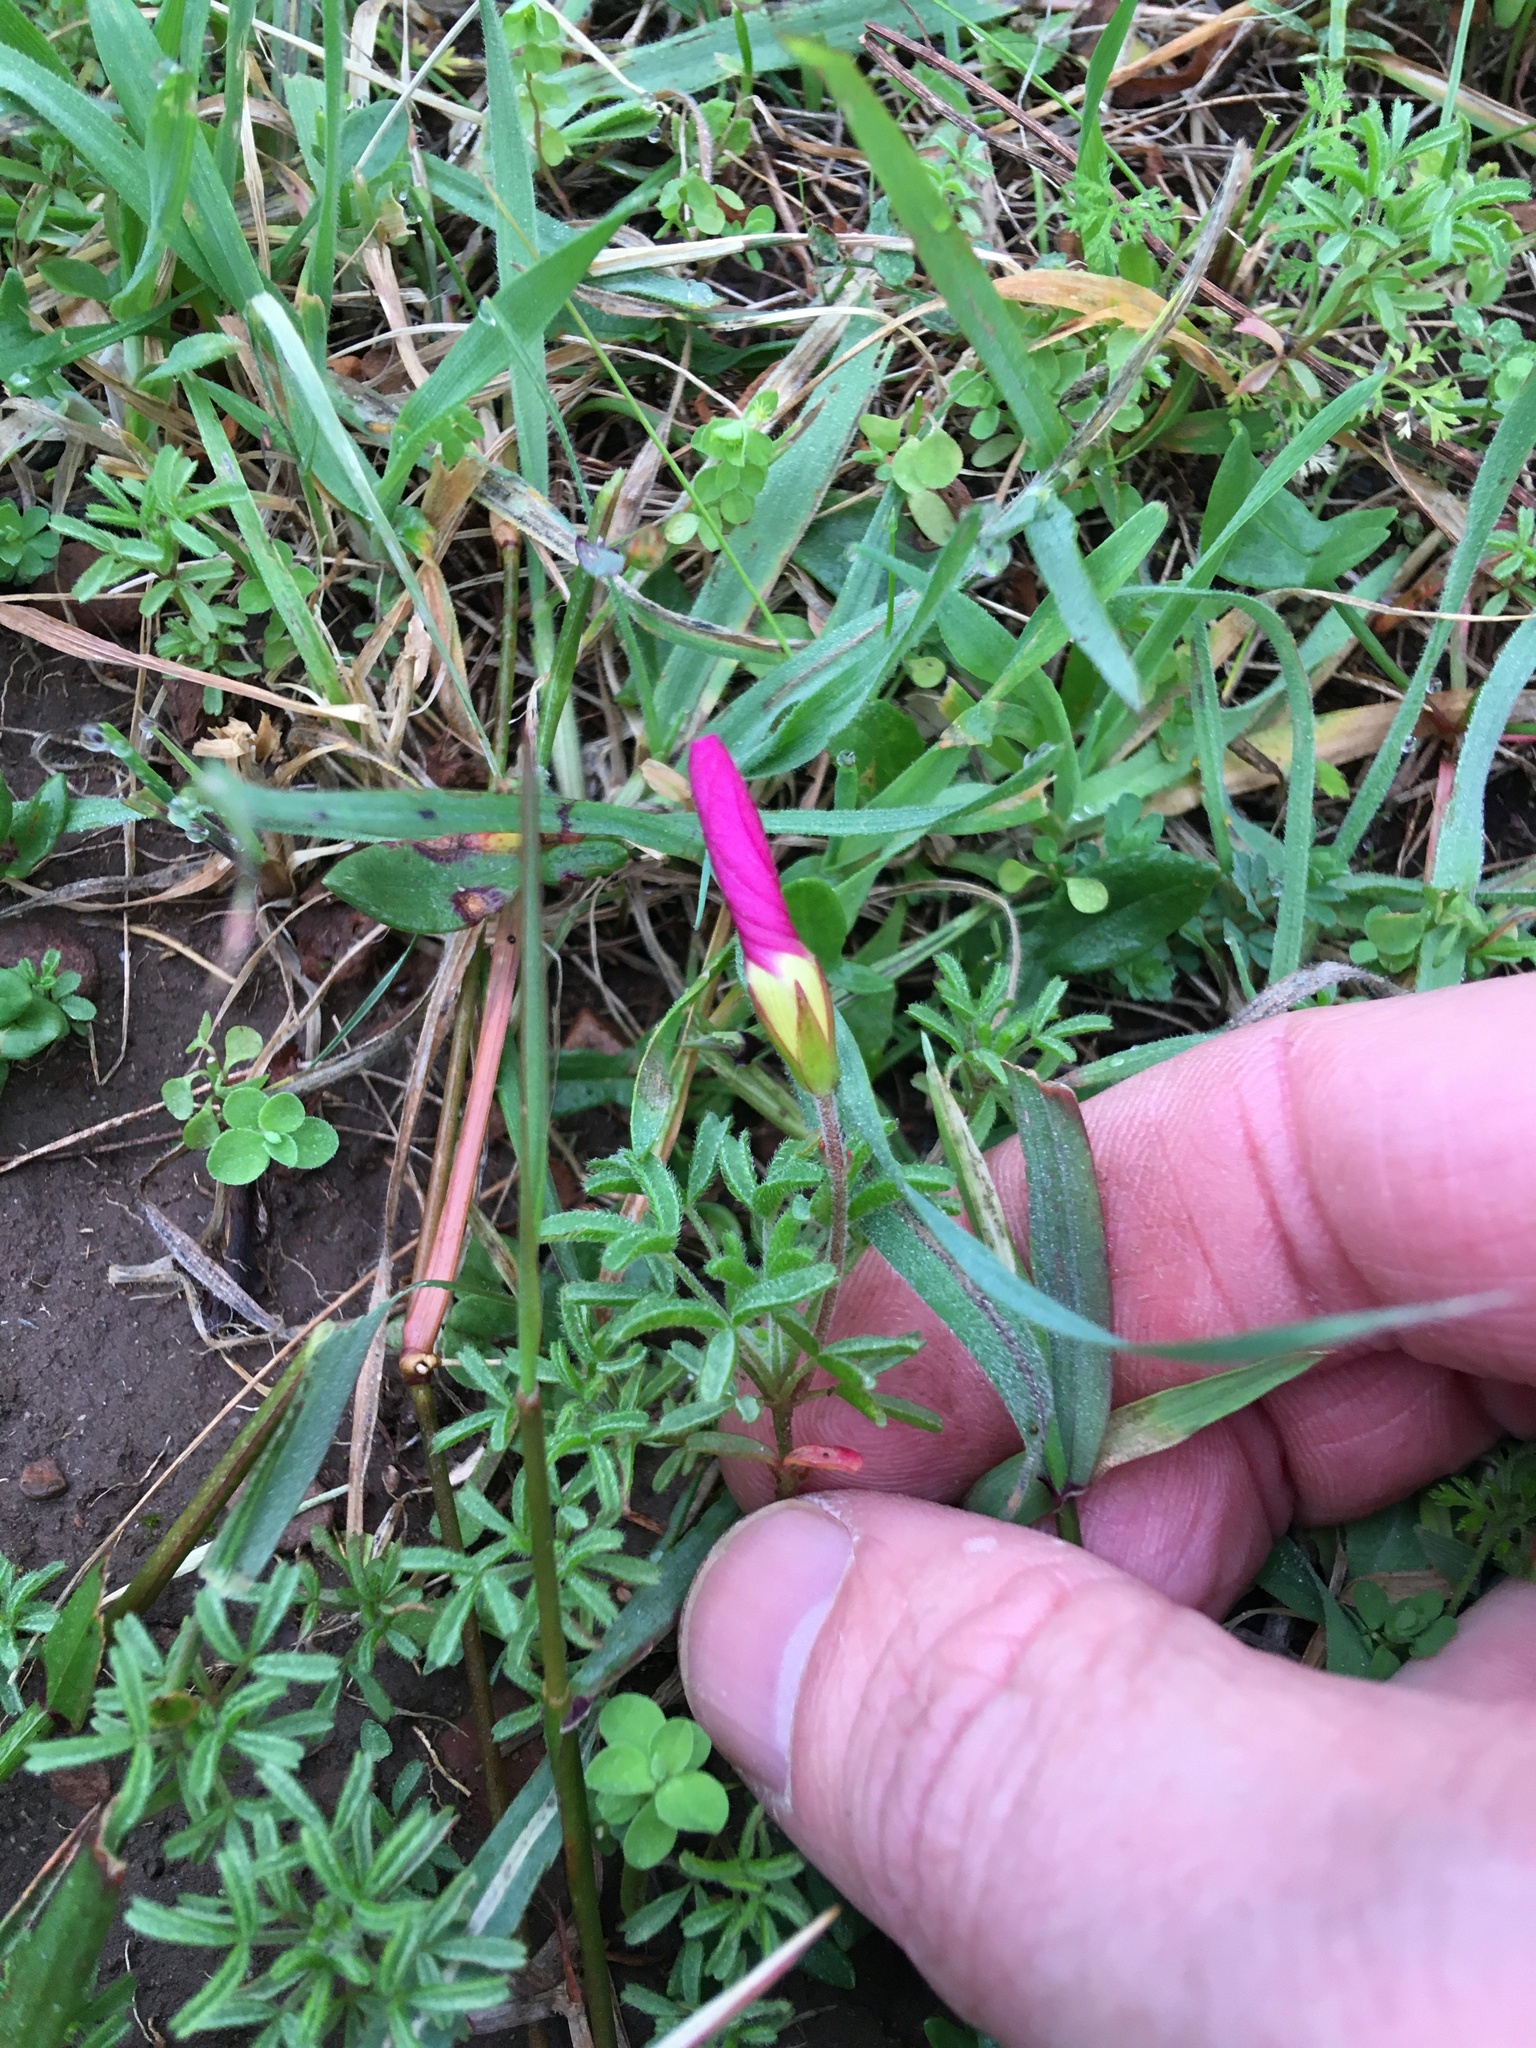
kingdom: Plantae
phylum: Tracheophyta
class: Magnoliopsida
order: Oxalidales
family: Oxalidaceae
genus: Oxalis
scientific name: Oxalis glabra
